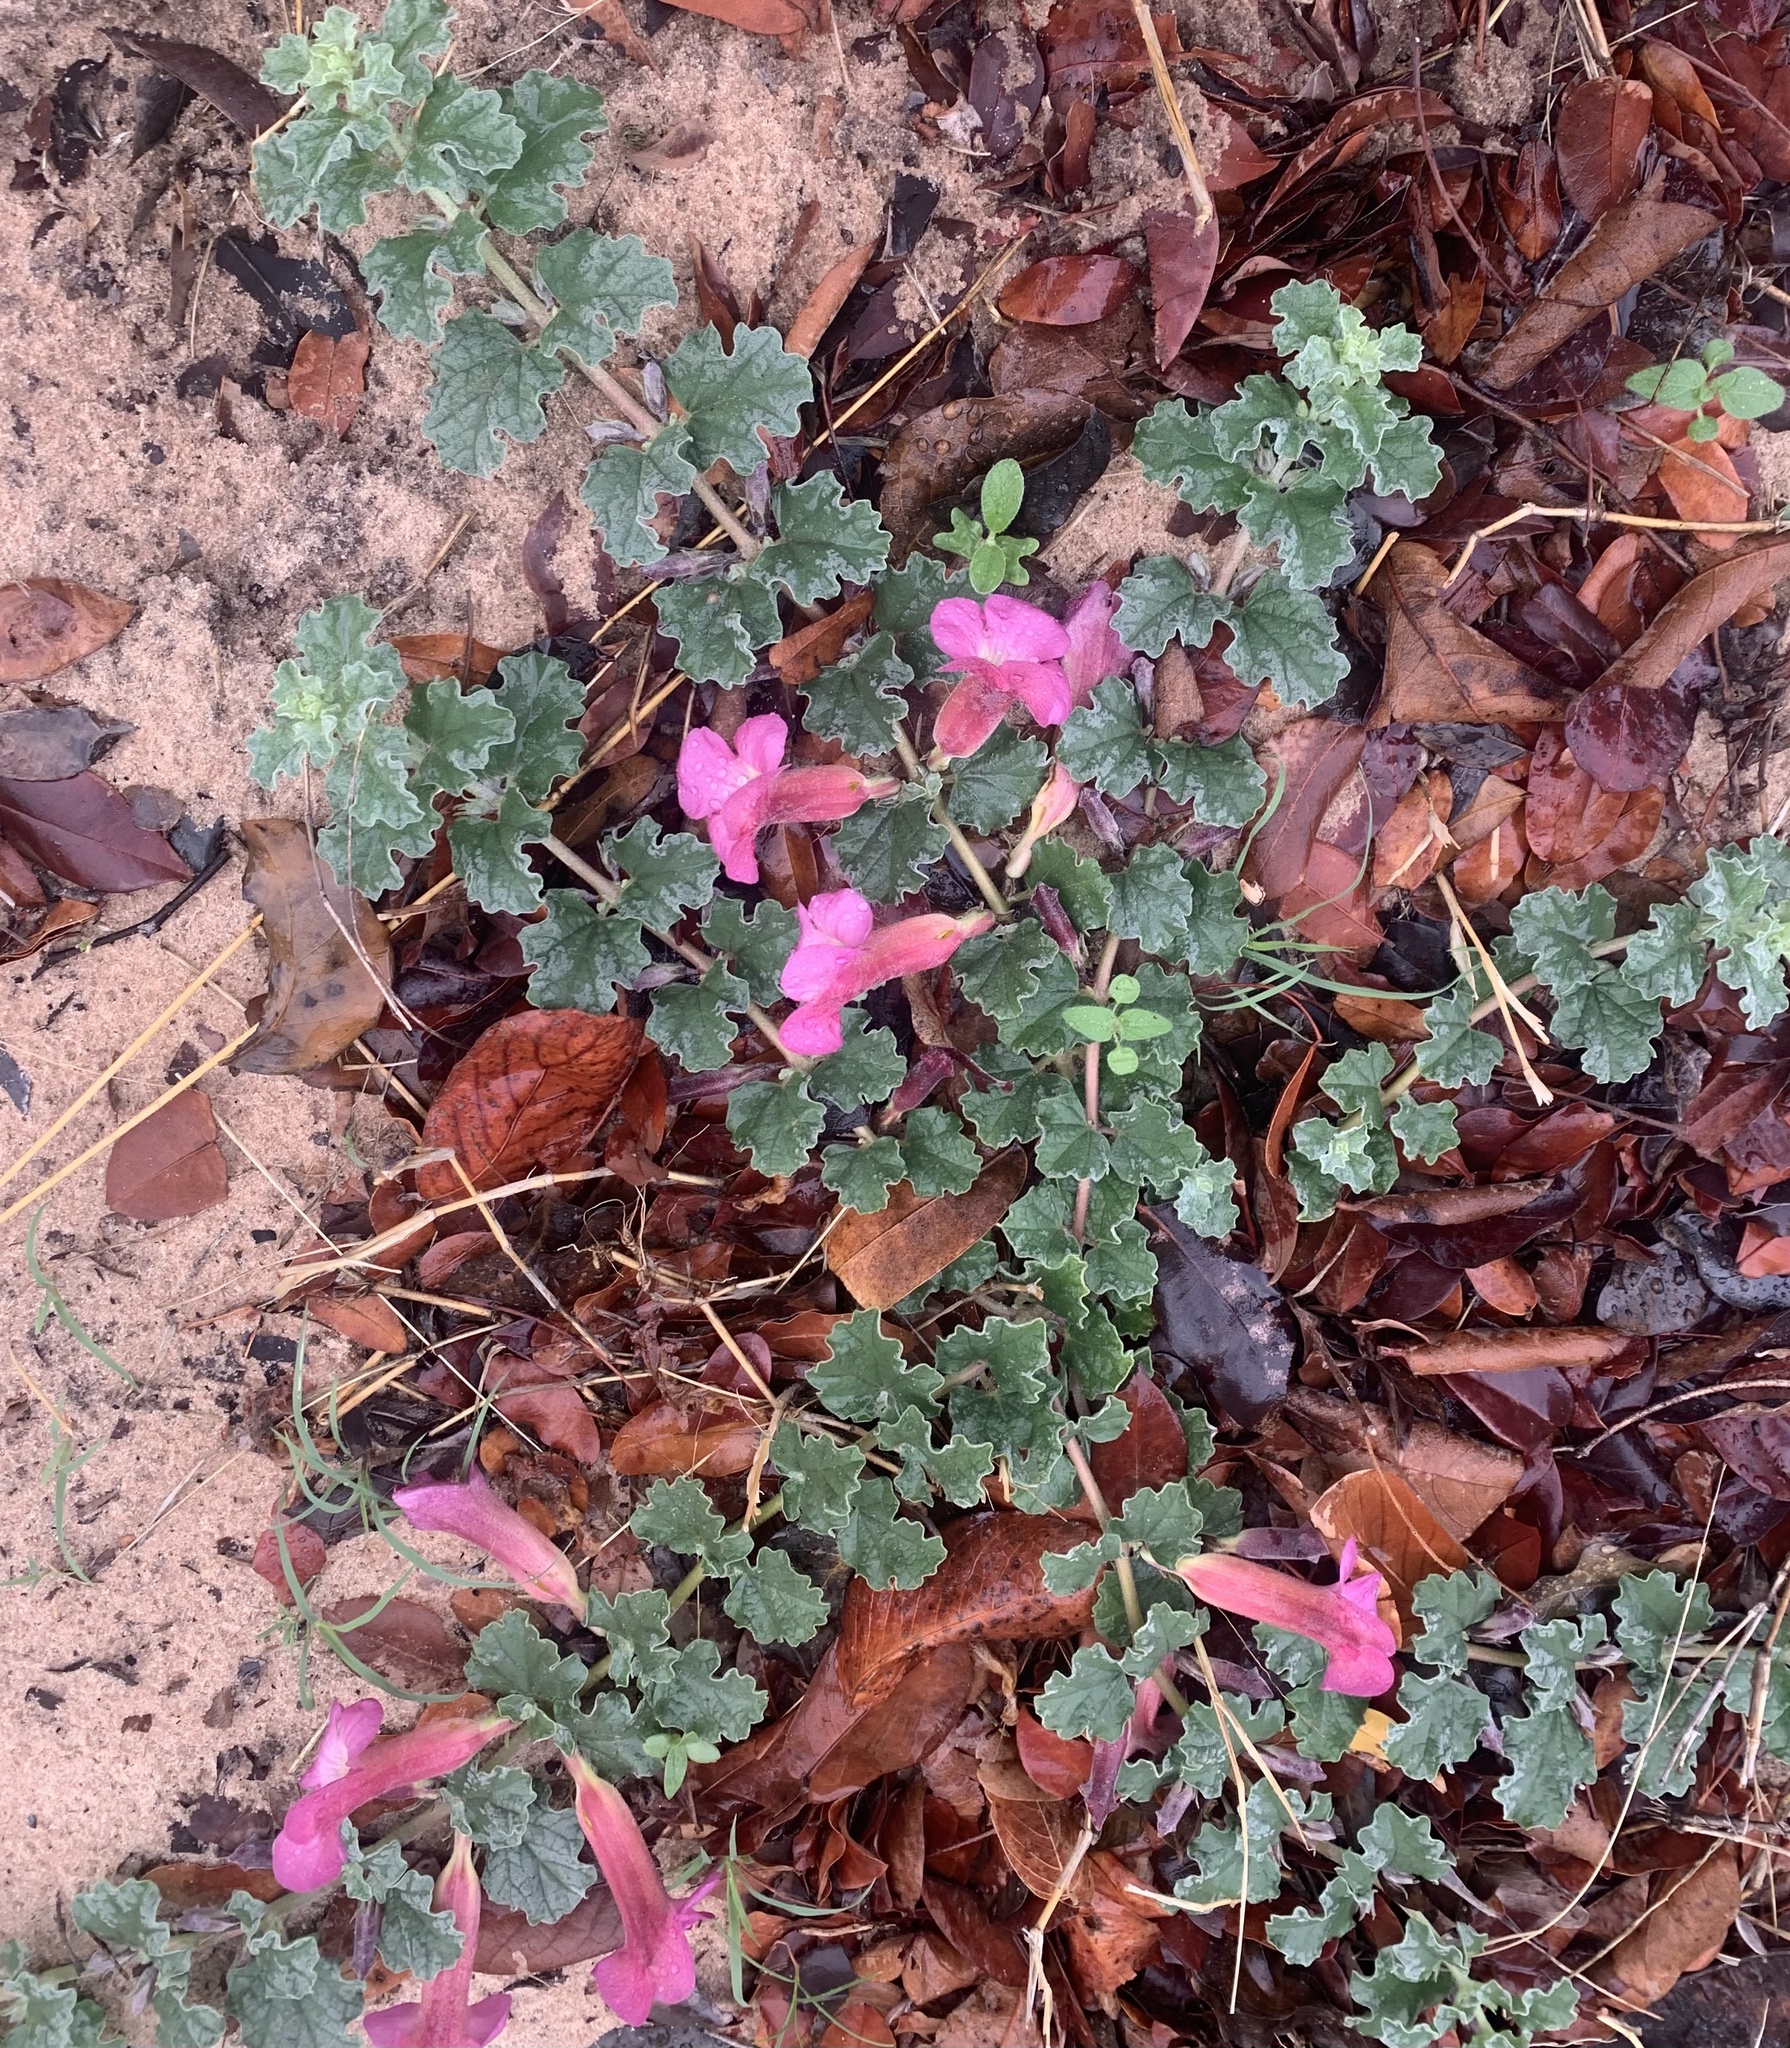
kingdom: Plantae
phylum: Tracheophyta
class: Magnoliopsida
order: Lamiales
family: Pedaliaceae
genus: Harpagophytum
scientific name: Harpagophytum zeyheri
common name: Grappleplant
